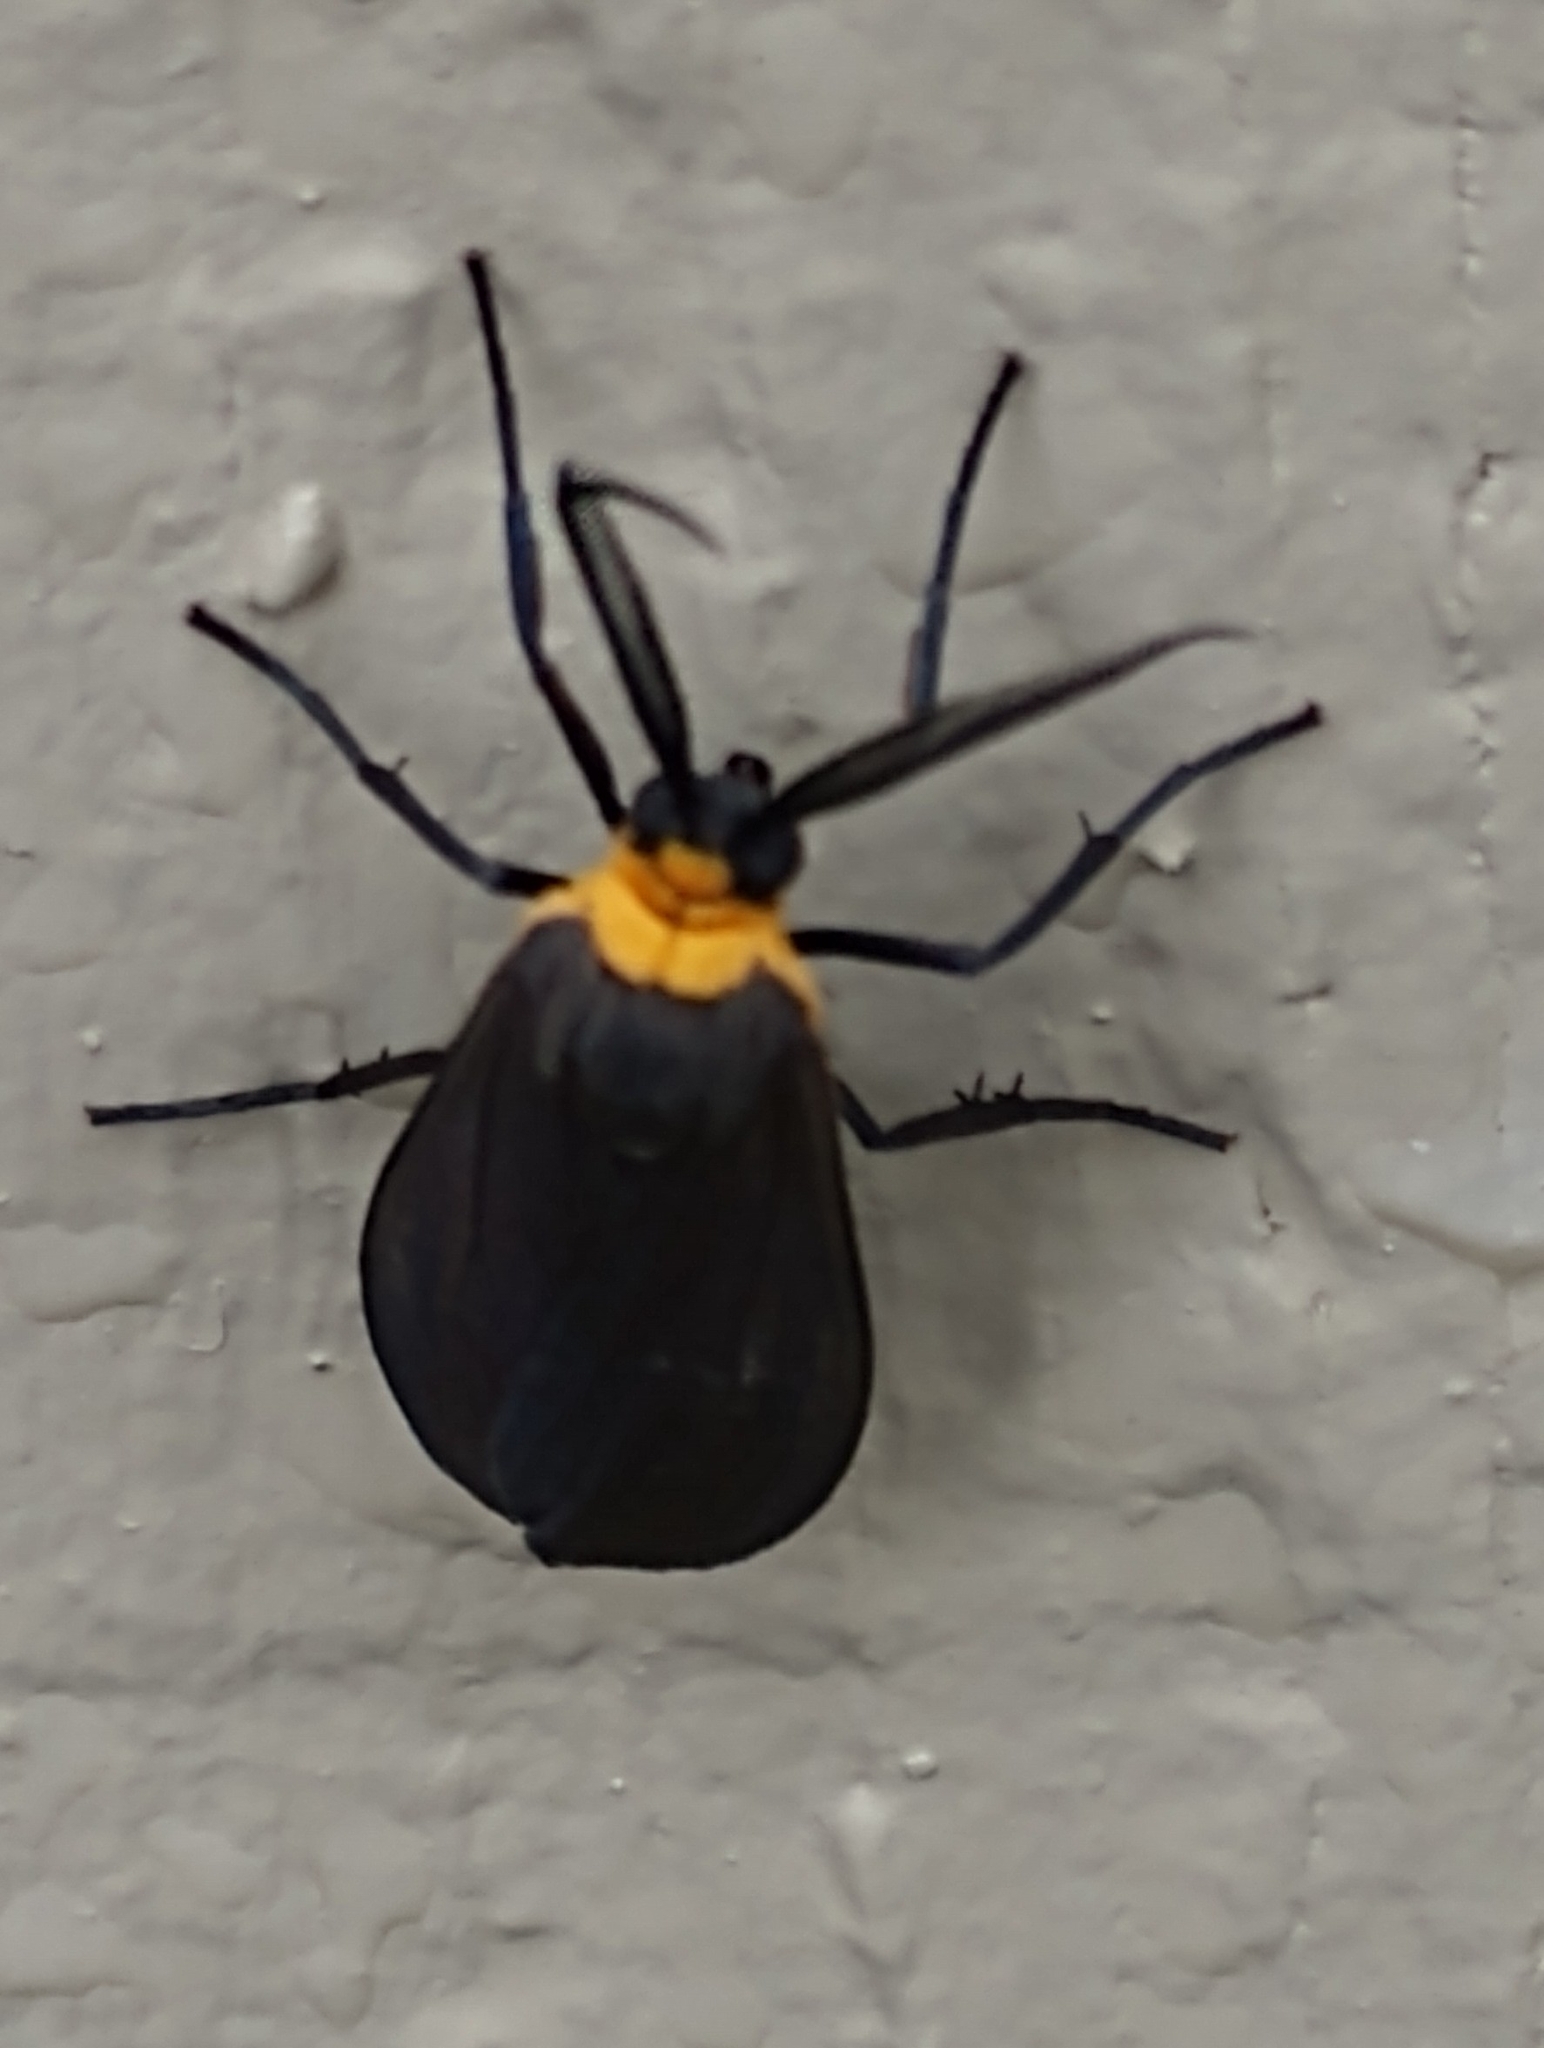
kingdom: Animalia
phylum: Arthropoda
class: Insecta
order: Lepidoptera
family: Erebidae
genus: Cisseps
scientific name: Cisseps fulvicollis
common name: Yellow-collared scape moth
